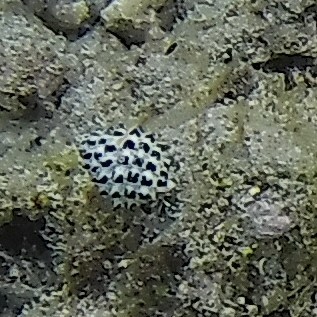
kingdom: Animalia
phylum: Mollusca
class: Gastropoda
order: Neogastropoda
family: Muricidae
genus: Morula
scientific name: Morula uva
